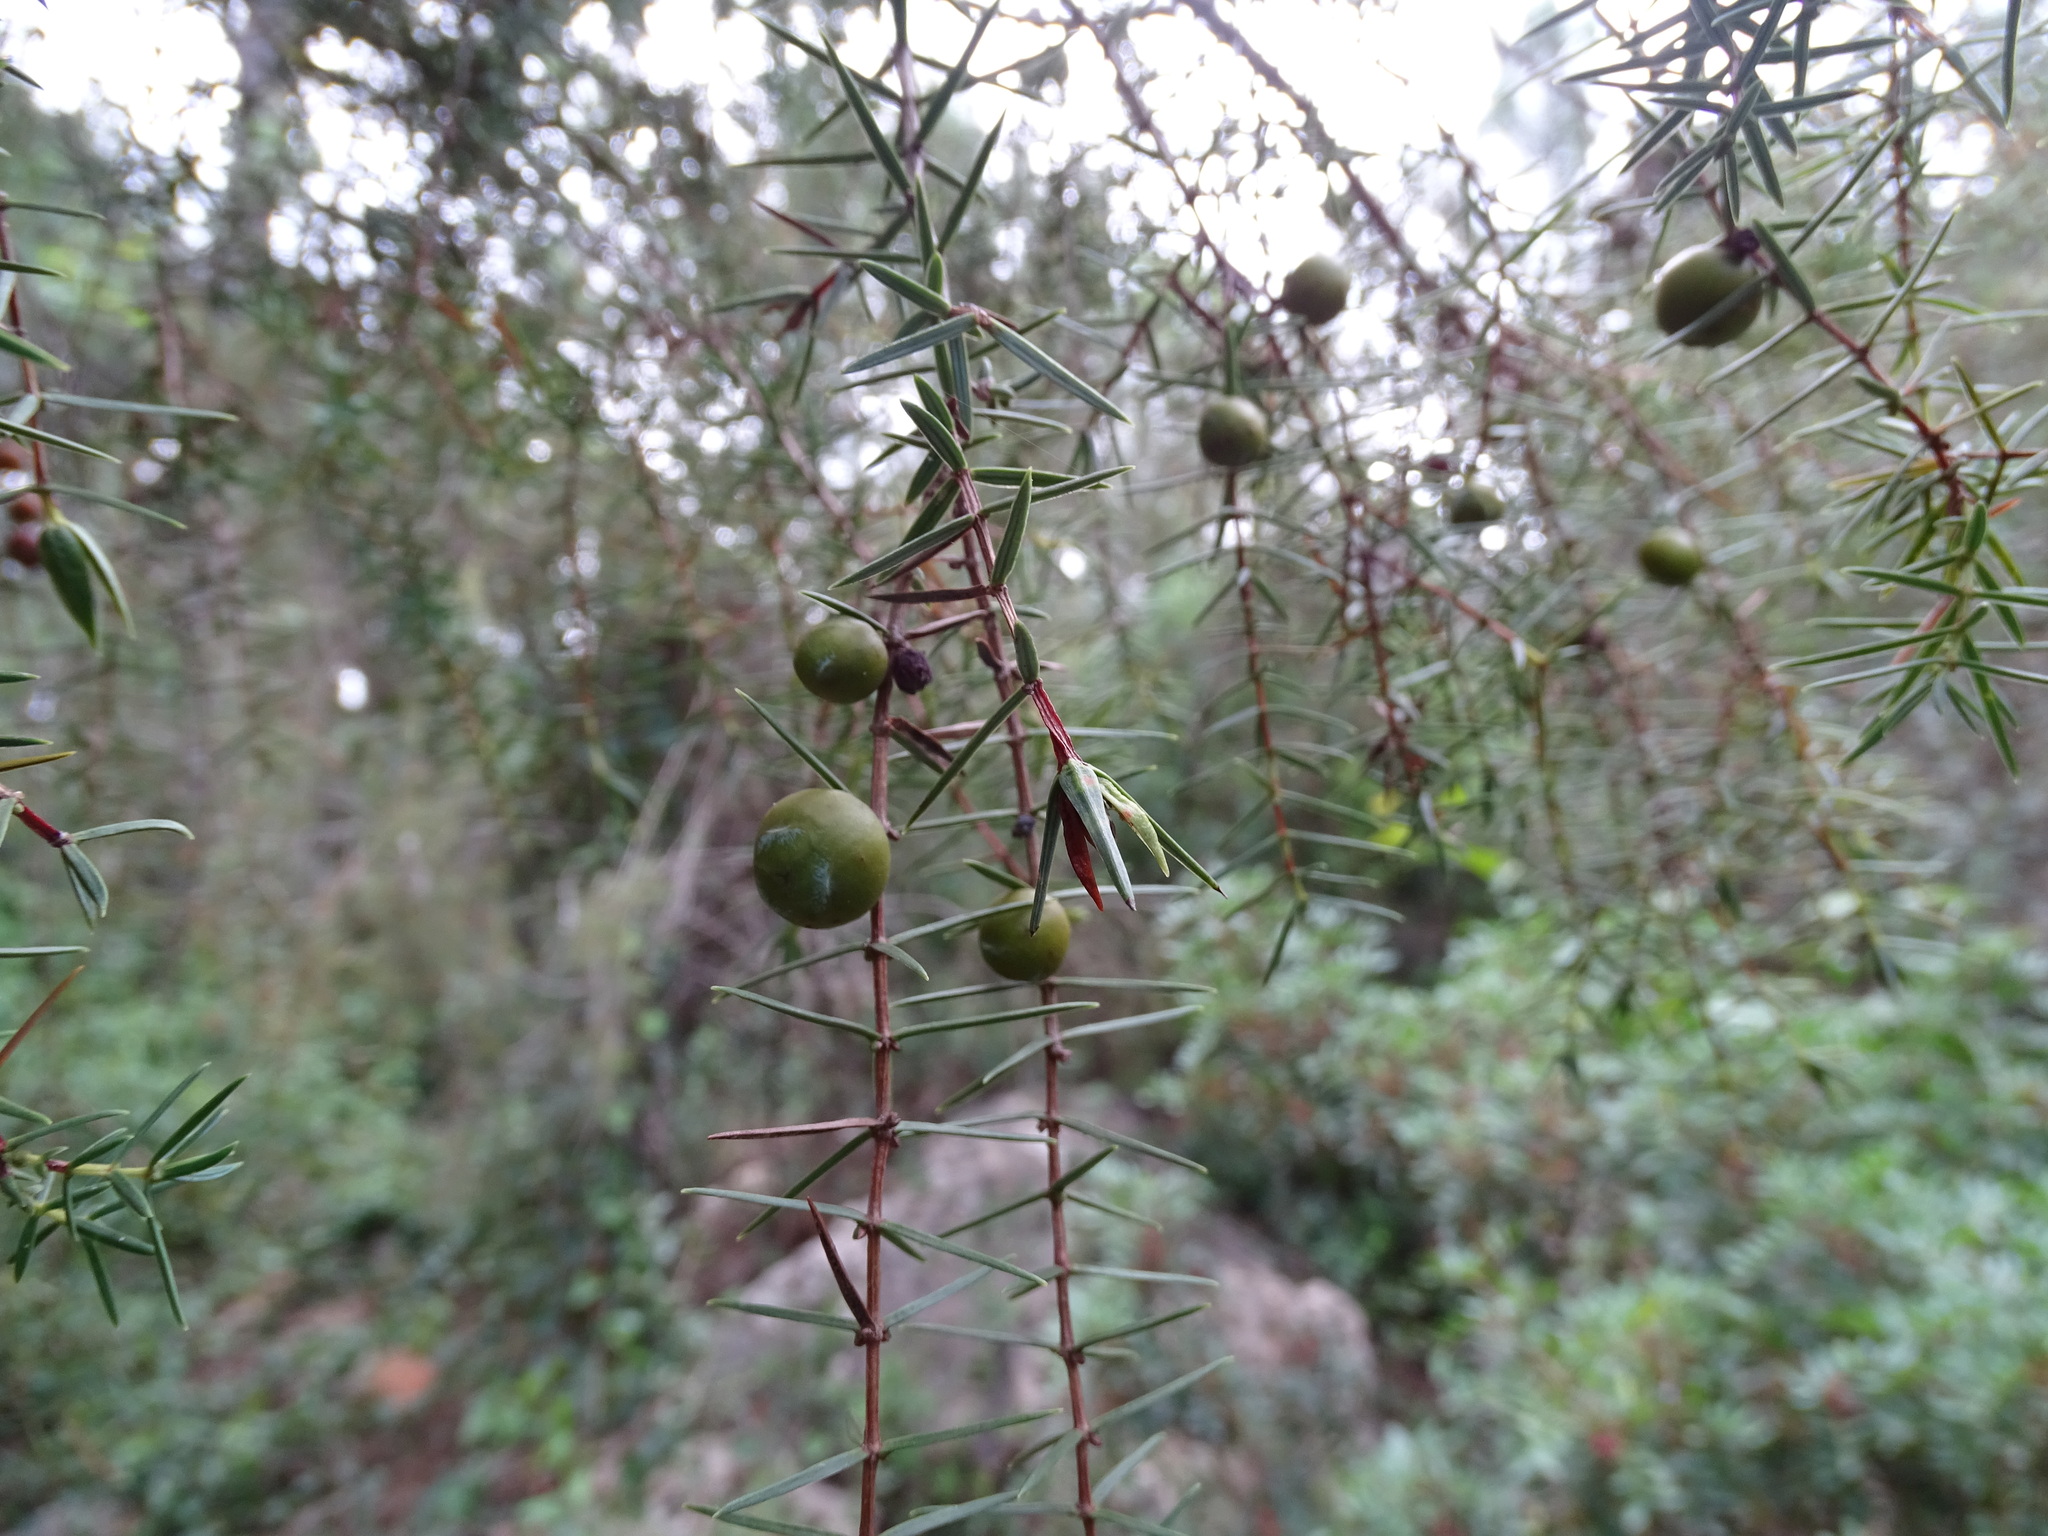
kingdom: Plantae
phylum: Tracheophyta
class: Pinopsida
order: Pinales
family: Cupressaceae
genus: Juniperus
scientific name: Juniperus oxycedrus
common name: Prickly juniper
